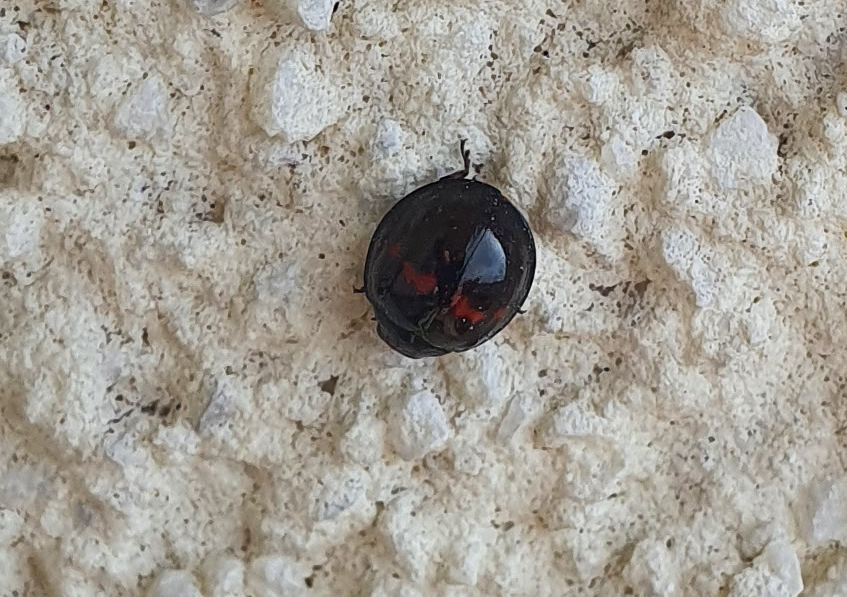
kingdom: Animalia
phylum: Arthropoda
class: Insecta
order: Coleoptera
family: Coccinellidae
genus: Chilocorus
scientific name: Chilocorus bipustulatus
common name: Heather ladybird
